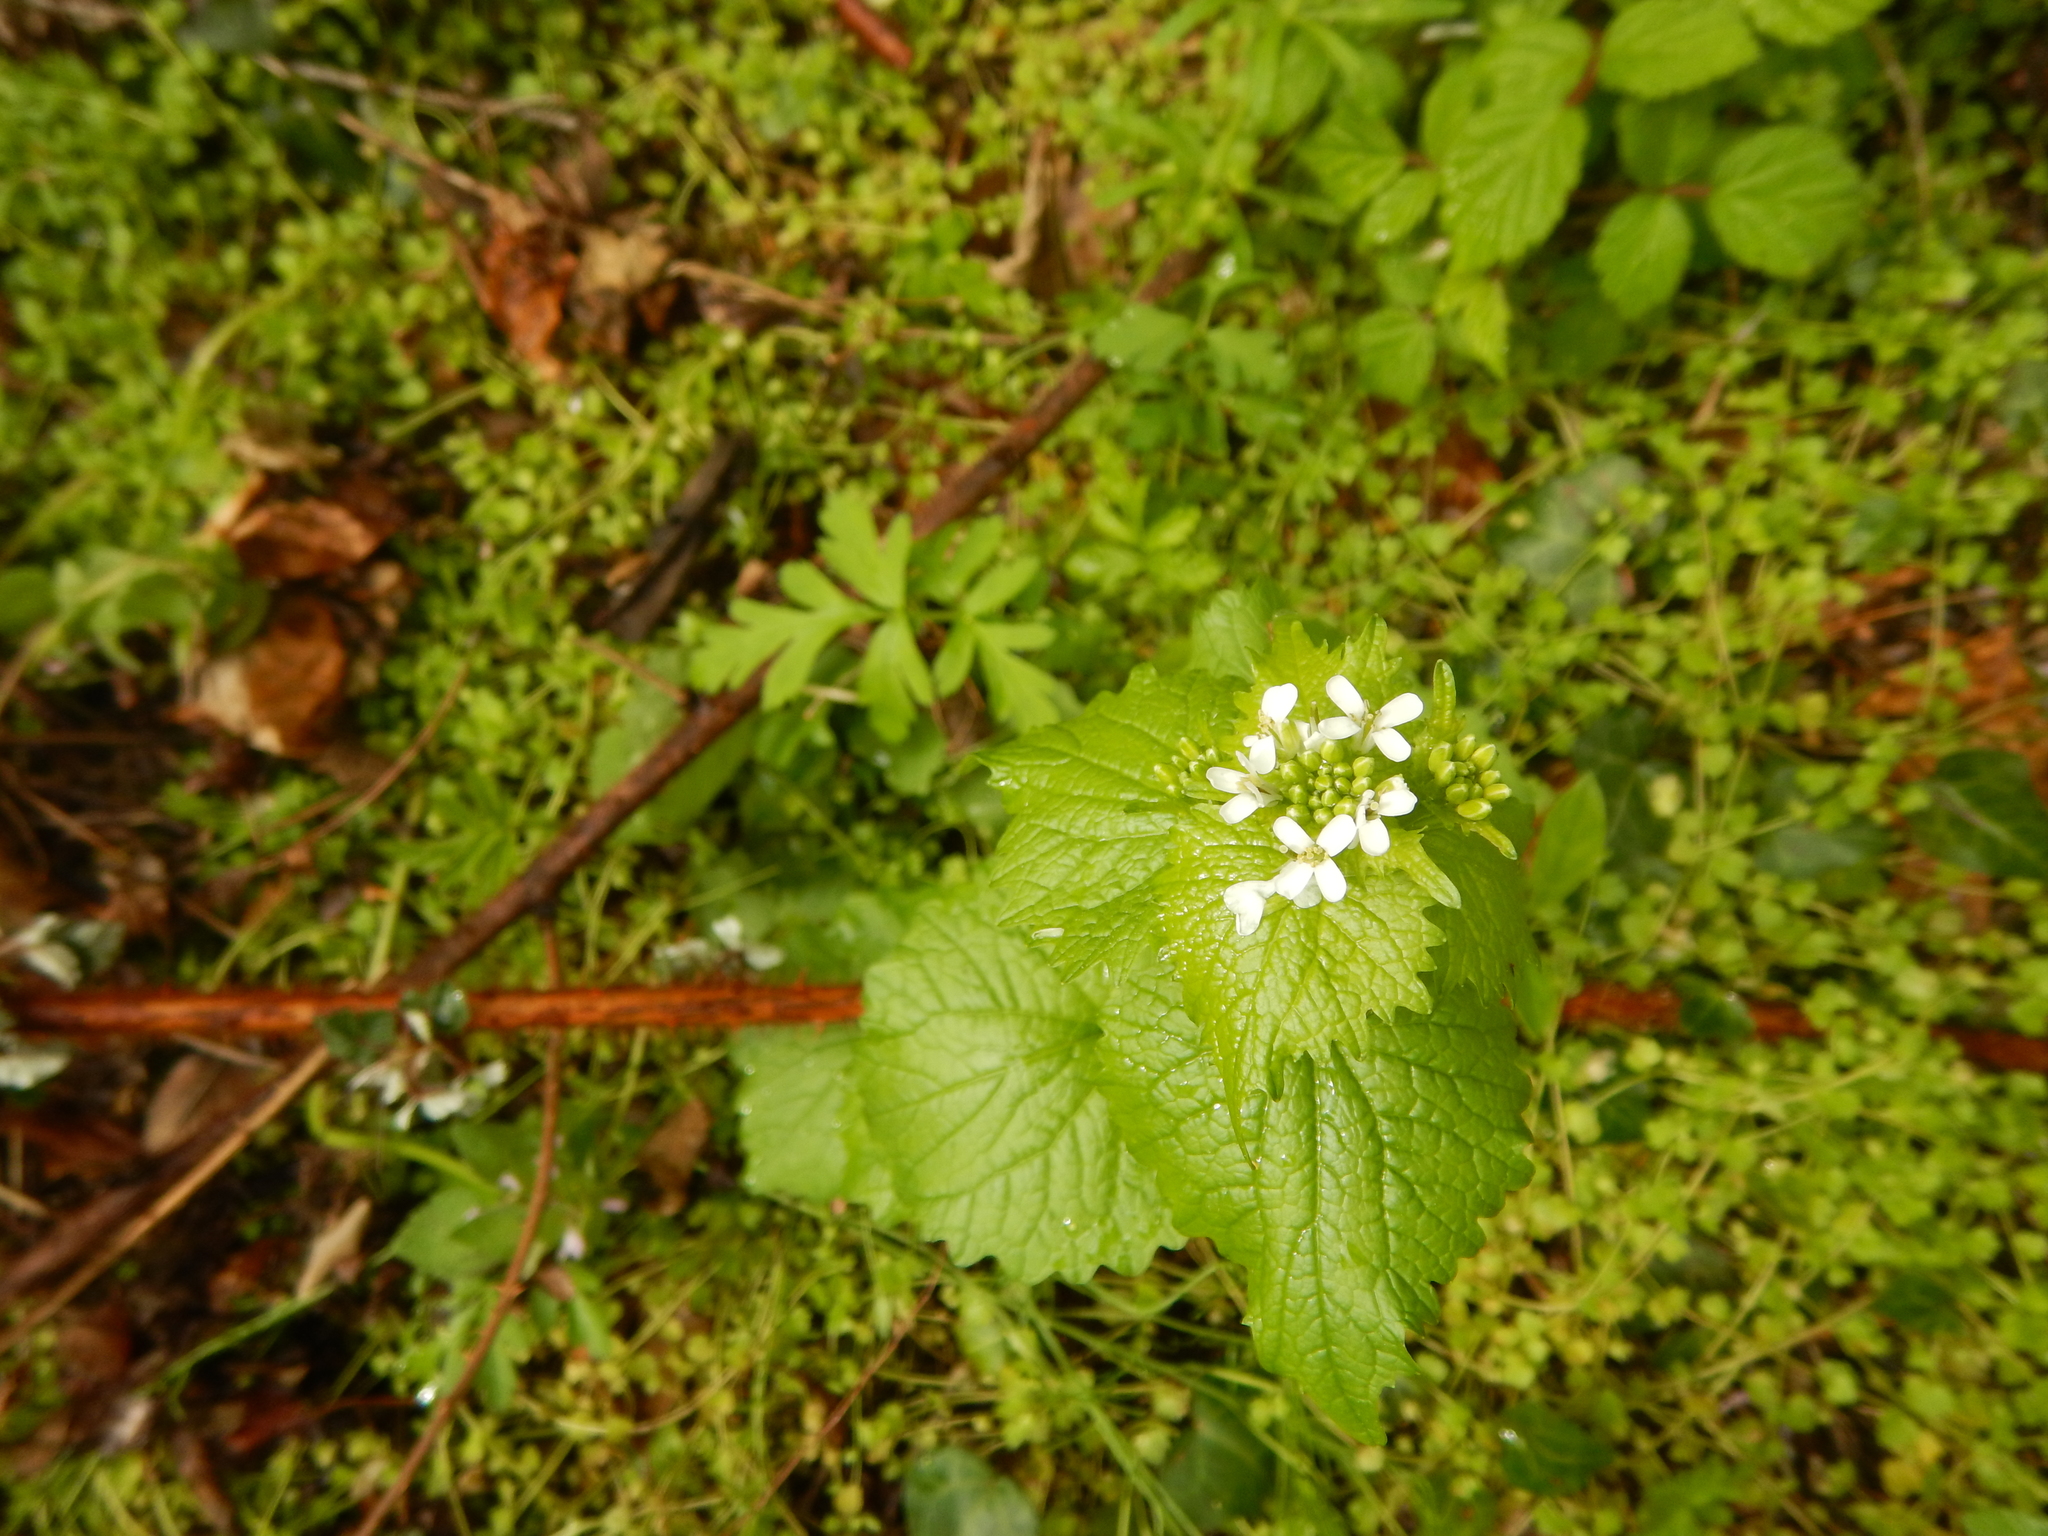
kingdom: Plantae
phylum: Tracheophyta
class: Magnoliopsida
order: Brassicales
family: Brassicaceae
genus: Alliaria
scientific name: Alliaria petiolata
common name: Garlic mustard
